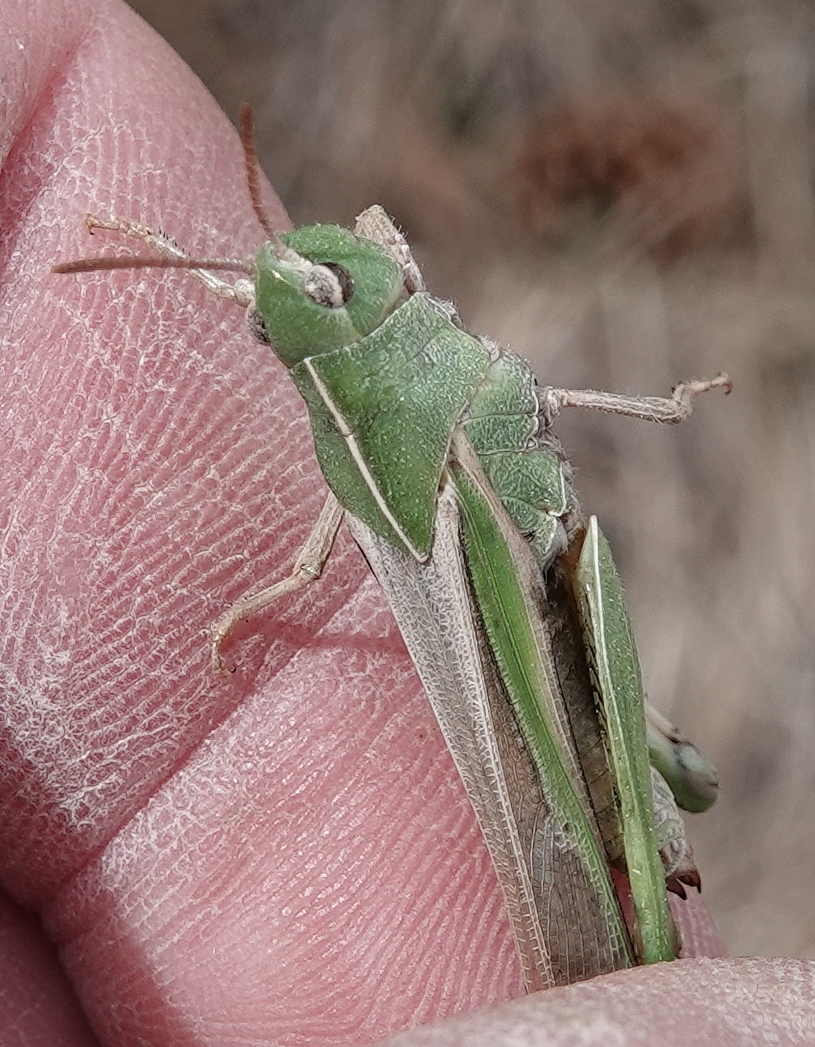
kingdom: Animalia
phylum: Arthropoda
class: Insecta
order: Orthoptera
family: Acrididae
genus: Chortophaga
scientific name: Chortophaga viridifasciata
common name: Green-striped grasshopper
